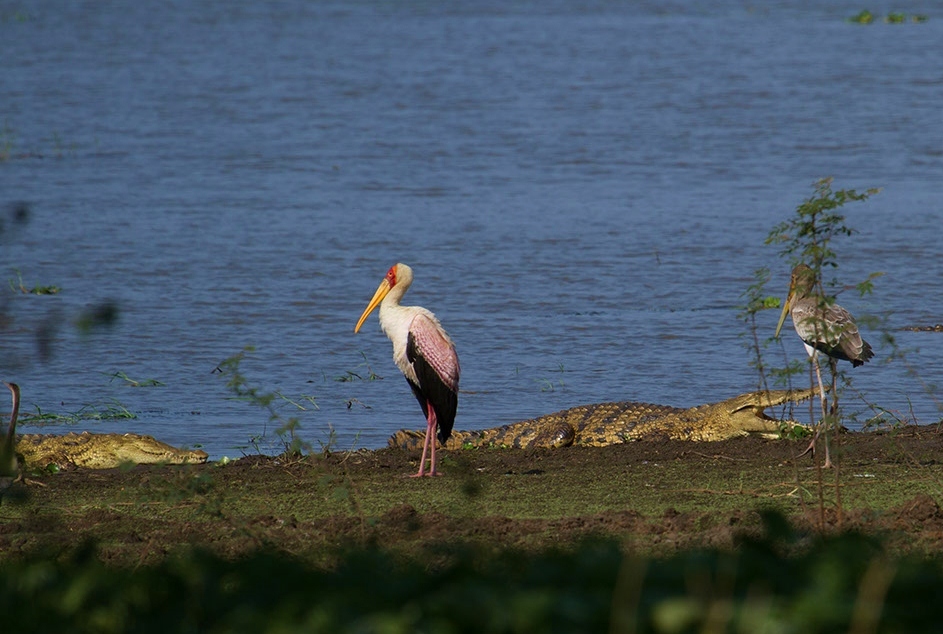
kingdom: Animalia
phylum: Chordata
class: Crocodylia
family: Crocodylidae
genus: Crocodylus
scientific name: Crocodylus niloticus
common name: Nile crocodile
